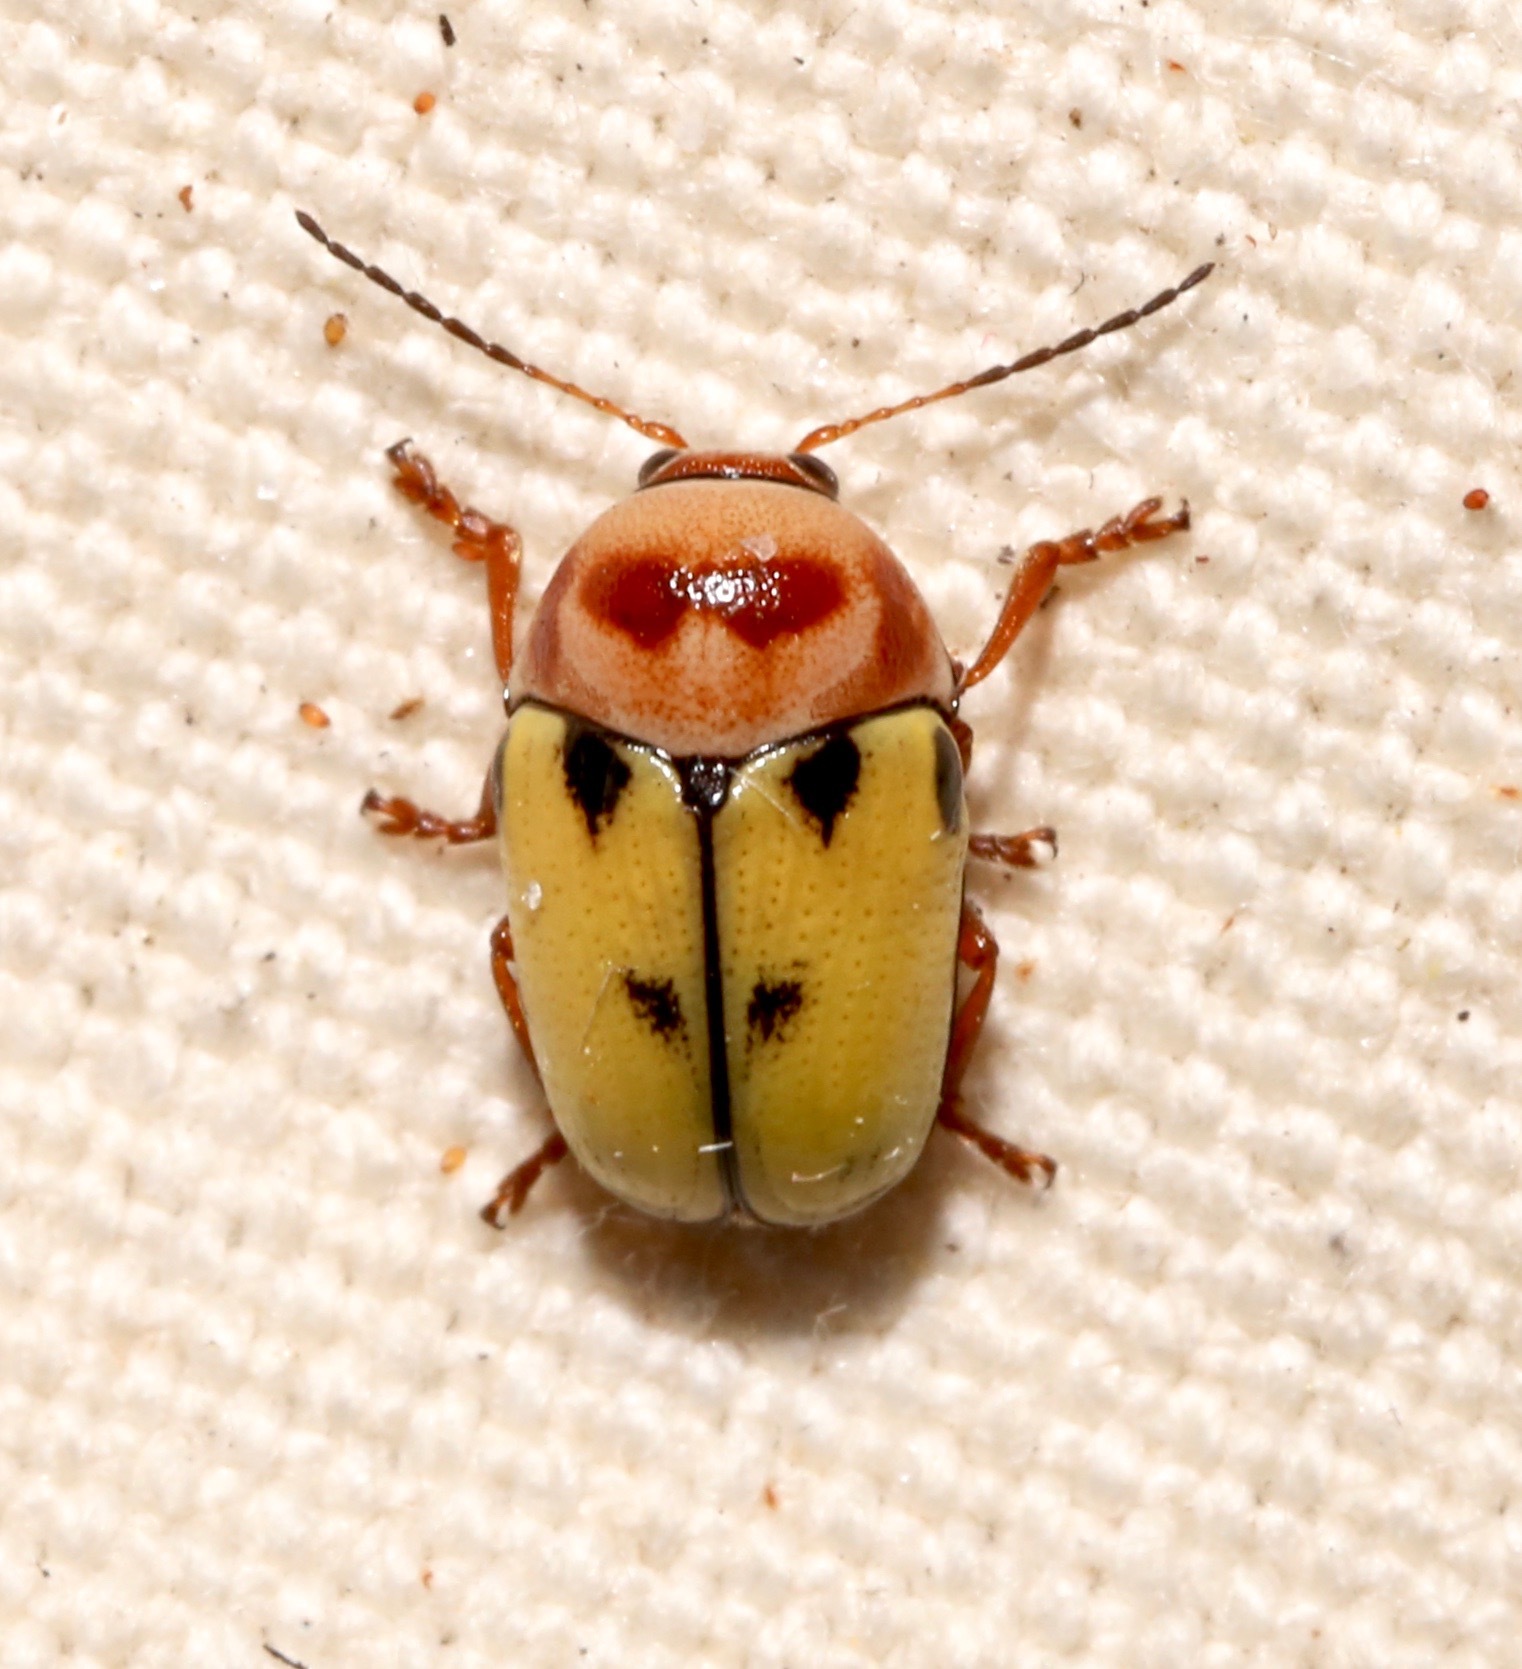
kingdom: Animalia
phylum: Arthropoda
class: Insecta
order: Coleoptera
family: Chrysomelidae
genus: Cryptocephalus
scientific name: Cryptocephalus aulicus
